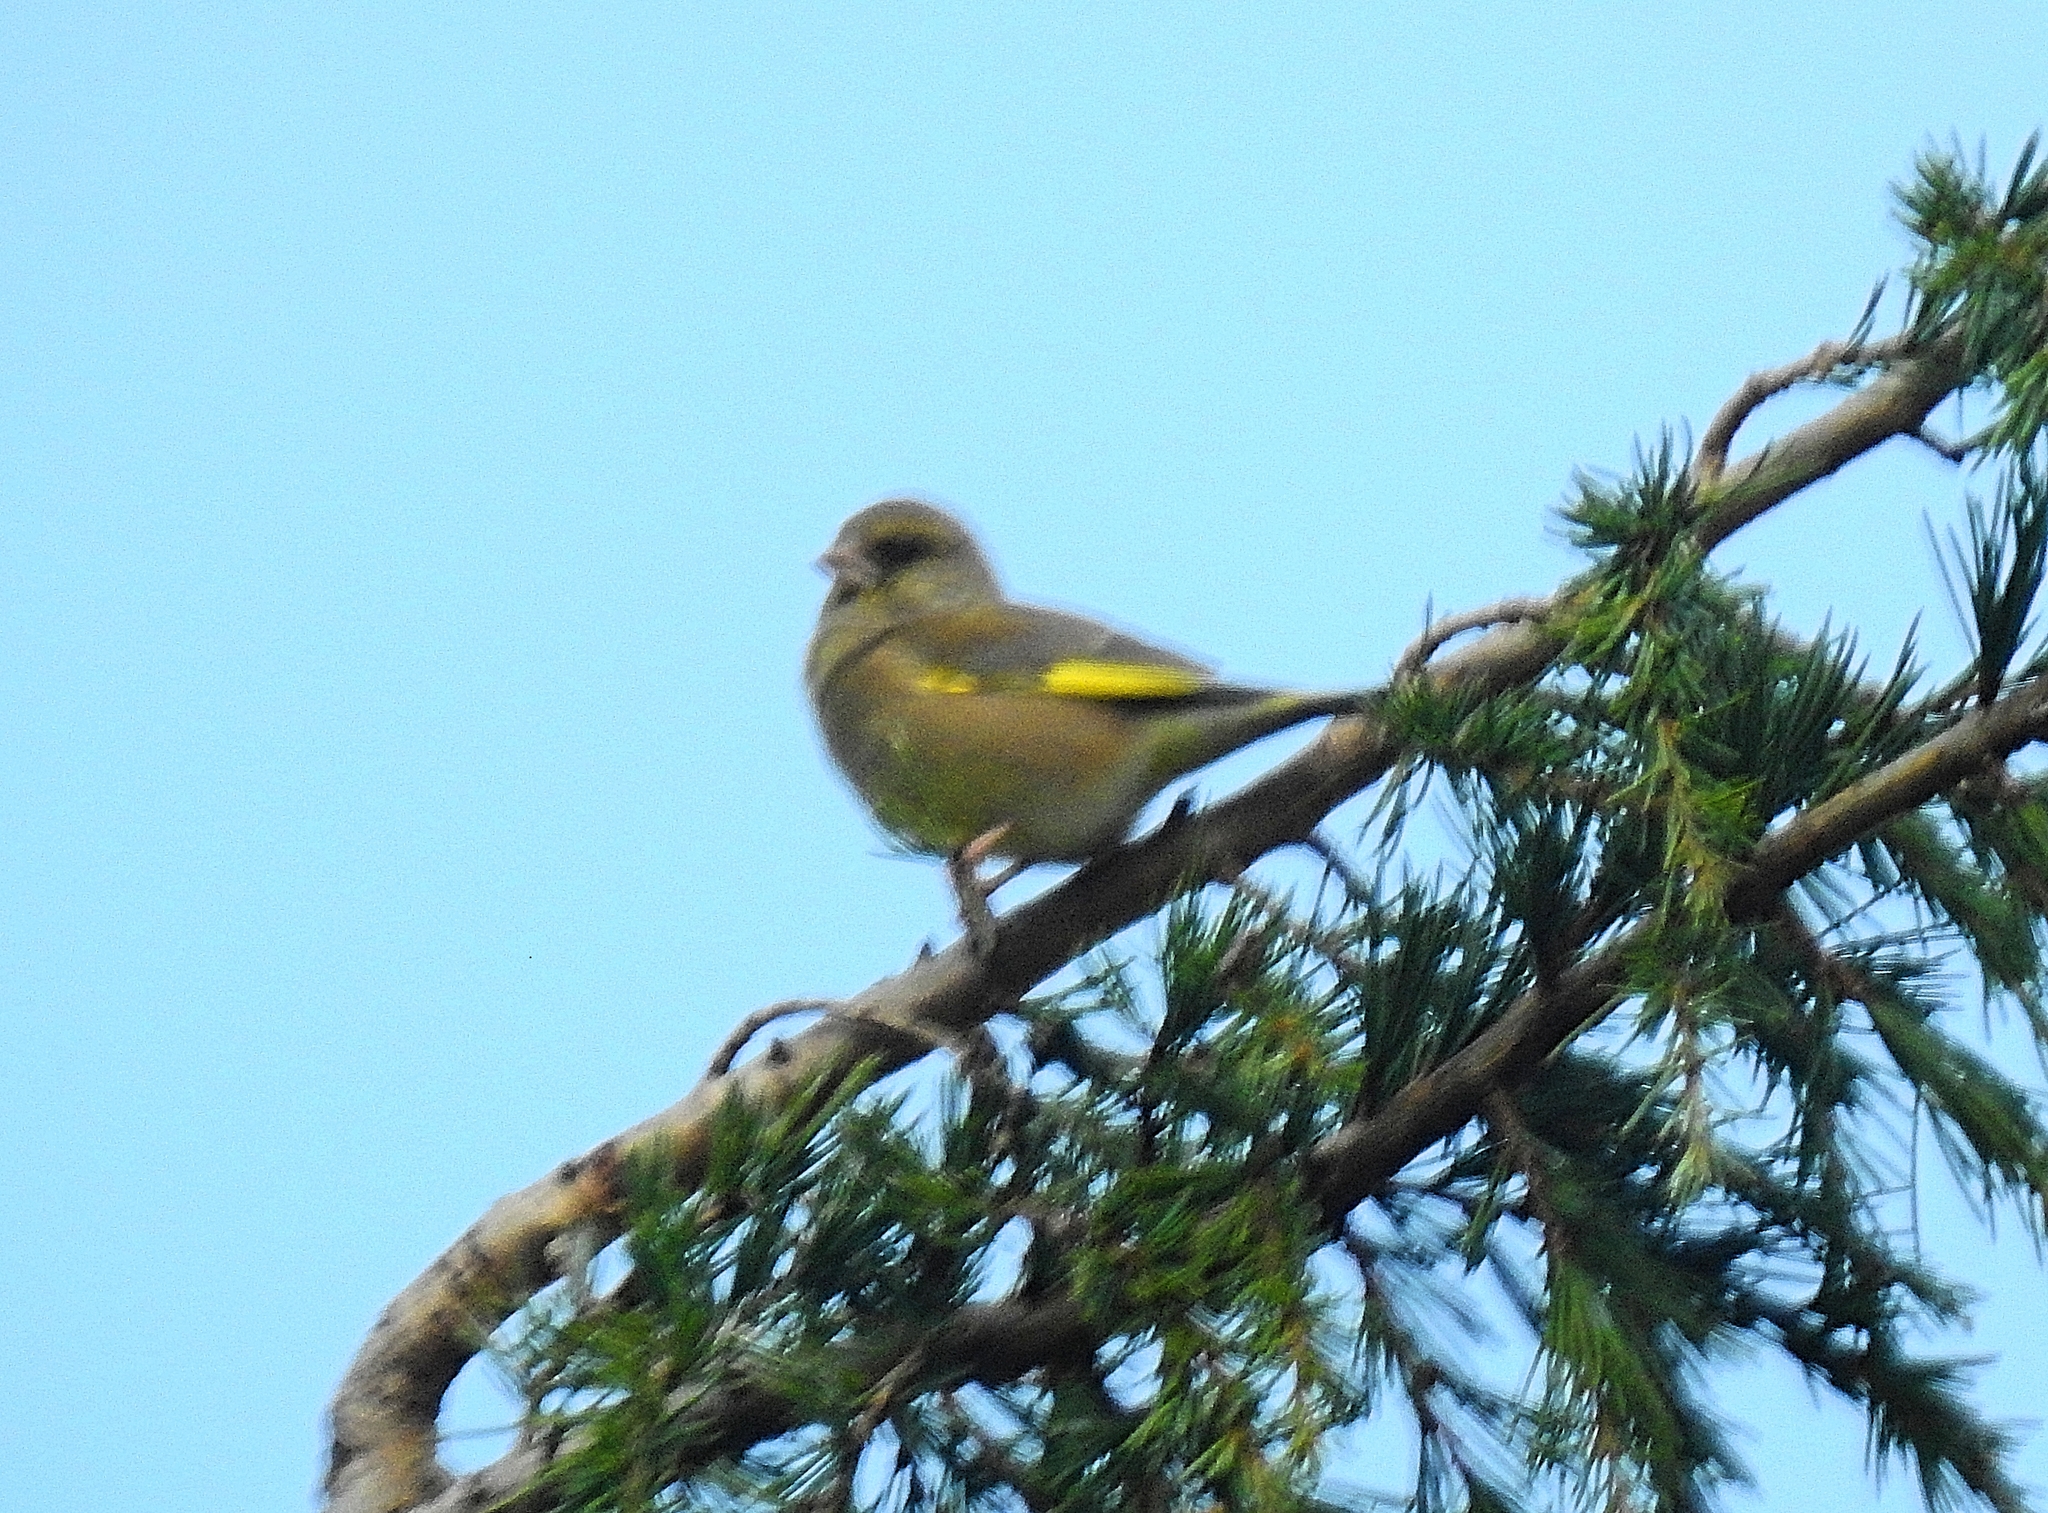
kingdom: Plantae
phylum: Tracheophyta
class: Liliopsida
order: Poales
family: Poaceae
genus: Chloris
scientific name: Chloris chloris
